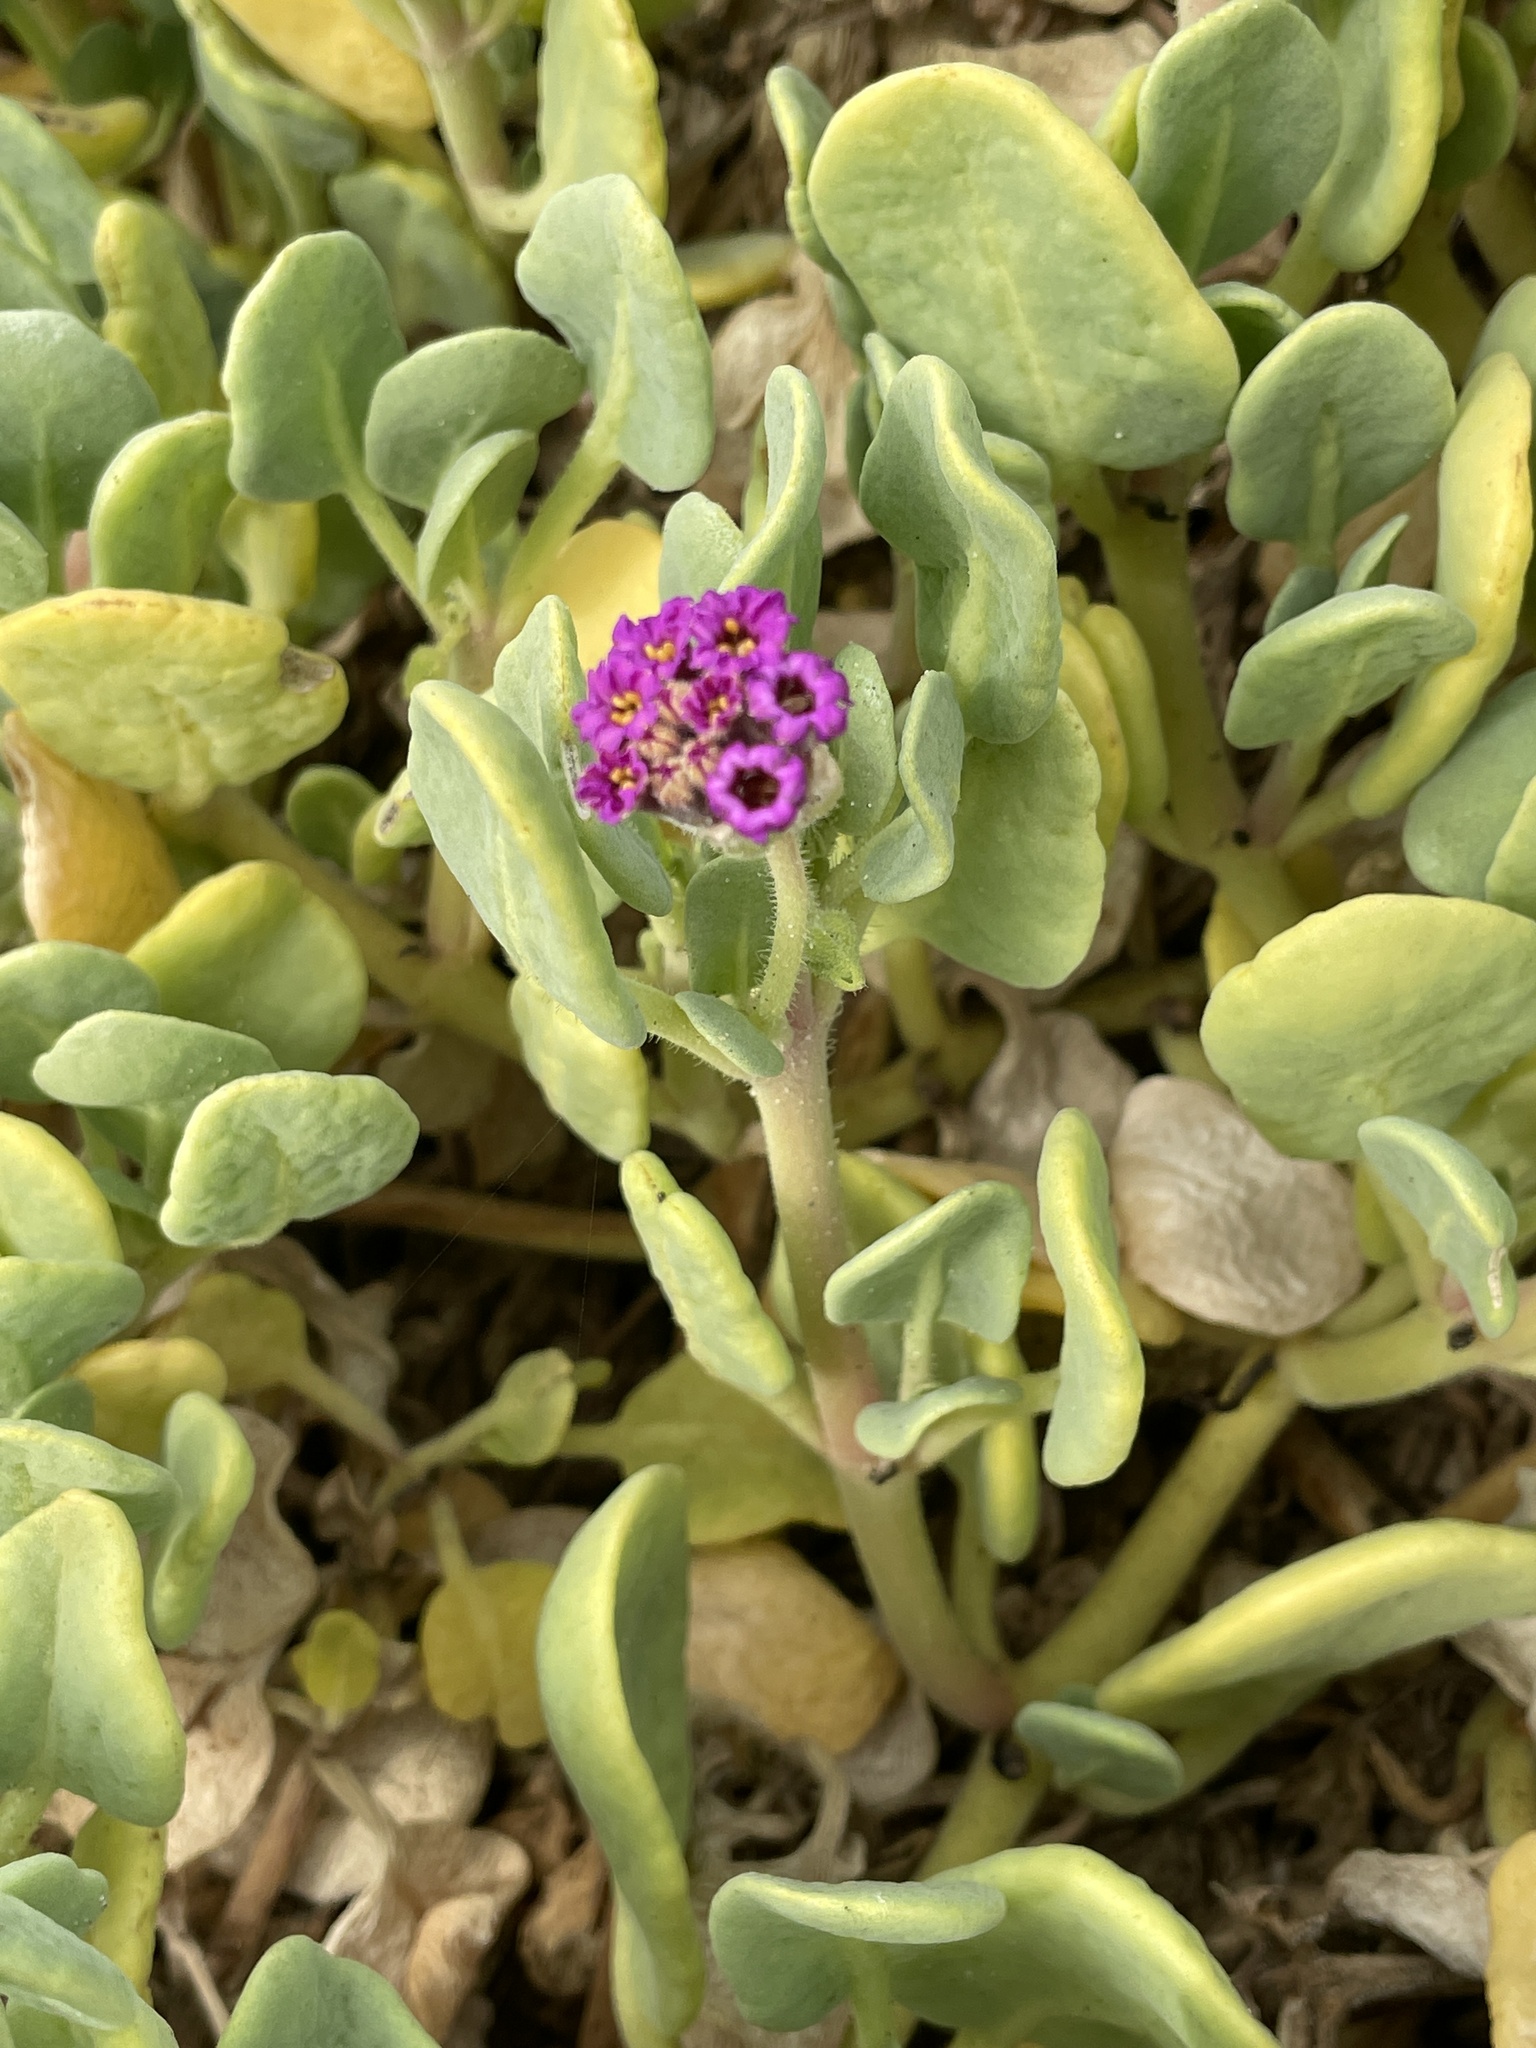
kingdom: Plantae
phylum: Tracheophyta
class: Magnoliopsida
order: Caryophyllales
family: Nyctaginaceae
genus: Abronia
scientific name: Abronia maritima
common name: Red sand-verbena
